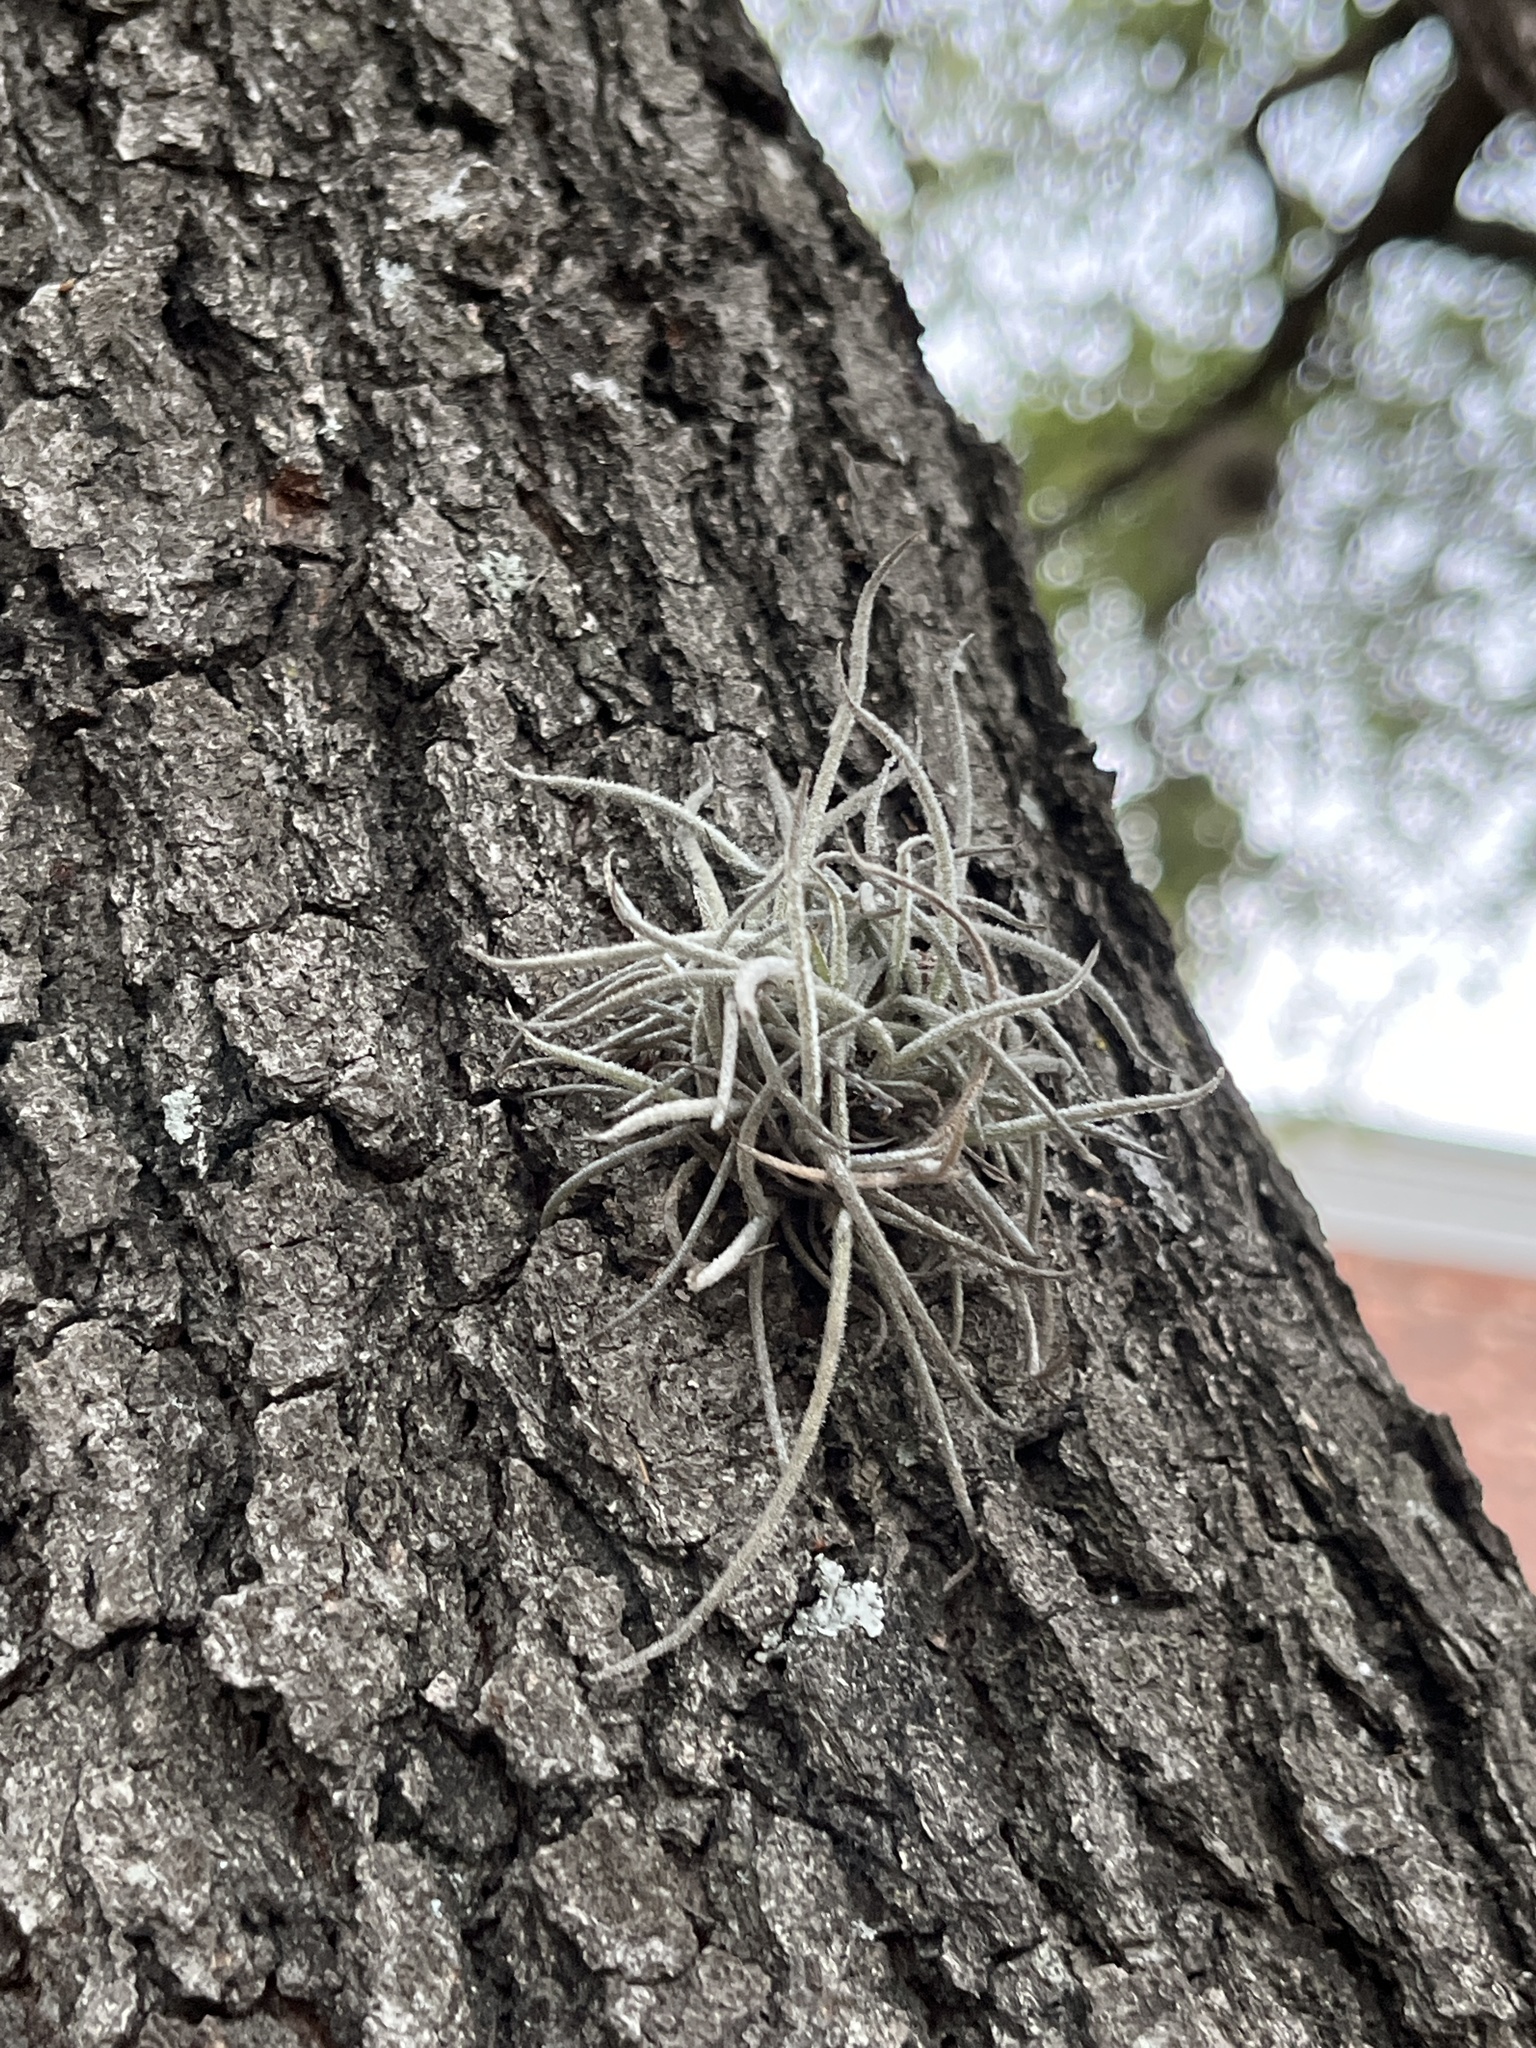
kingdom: Plantae
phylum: Tracheophyta
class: Liliopsida
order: Poales
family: Bromeliaceae
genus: Tillandsia
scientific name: Tillandsia recurvata
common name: Small ballmoss
